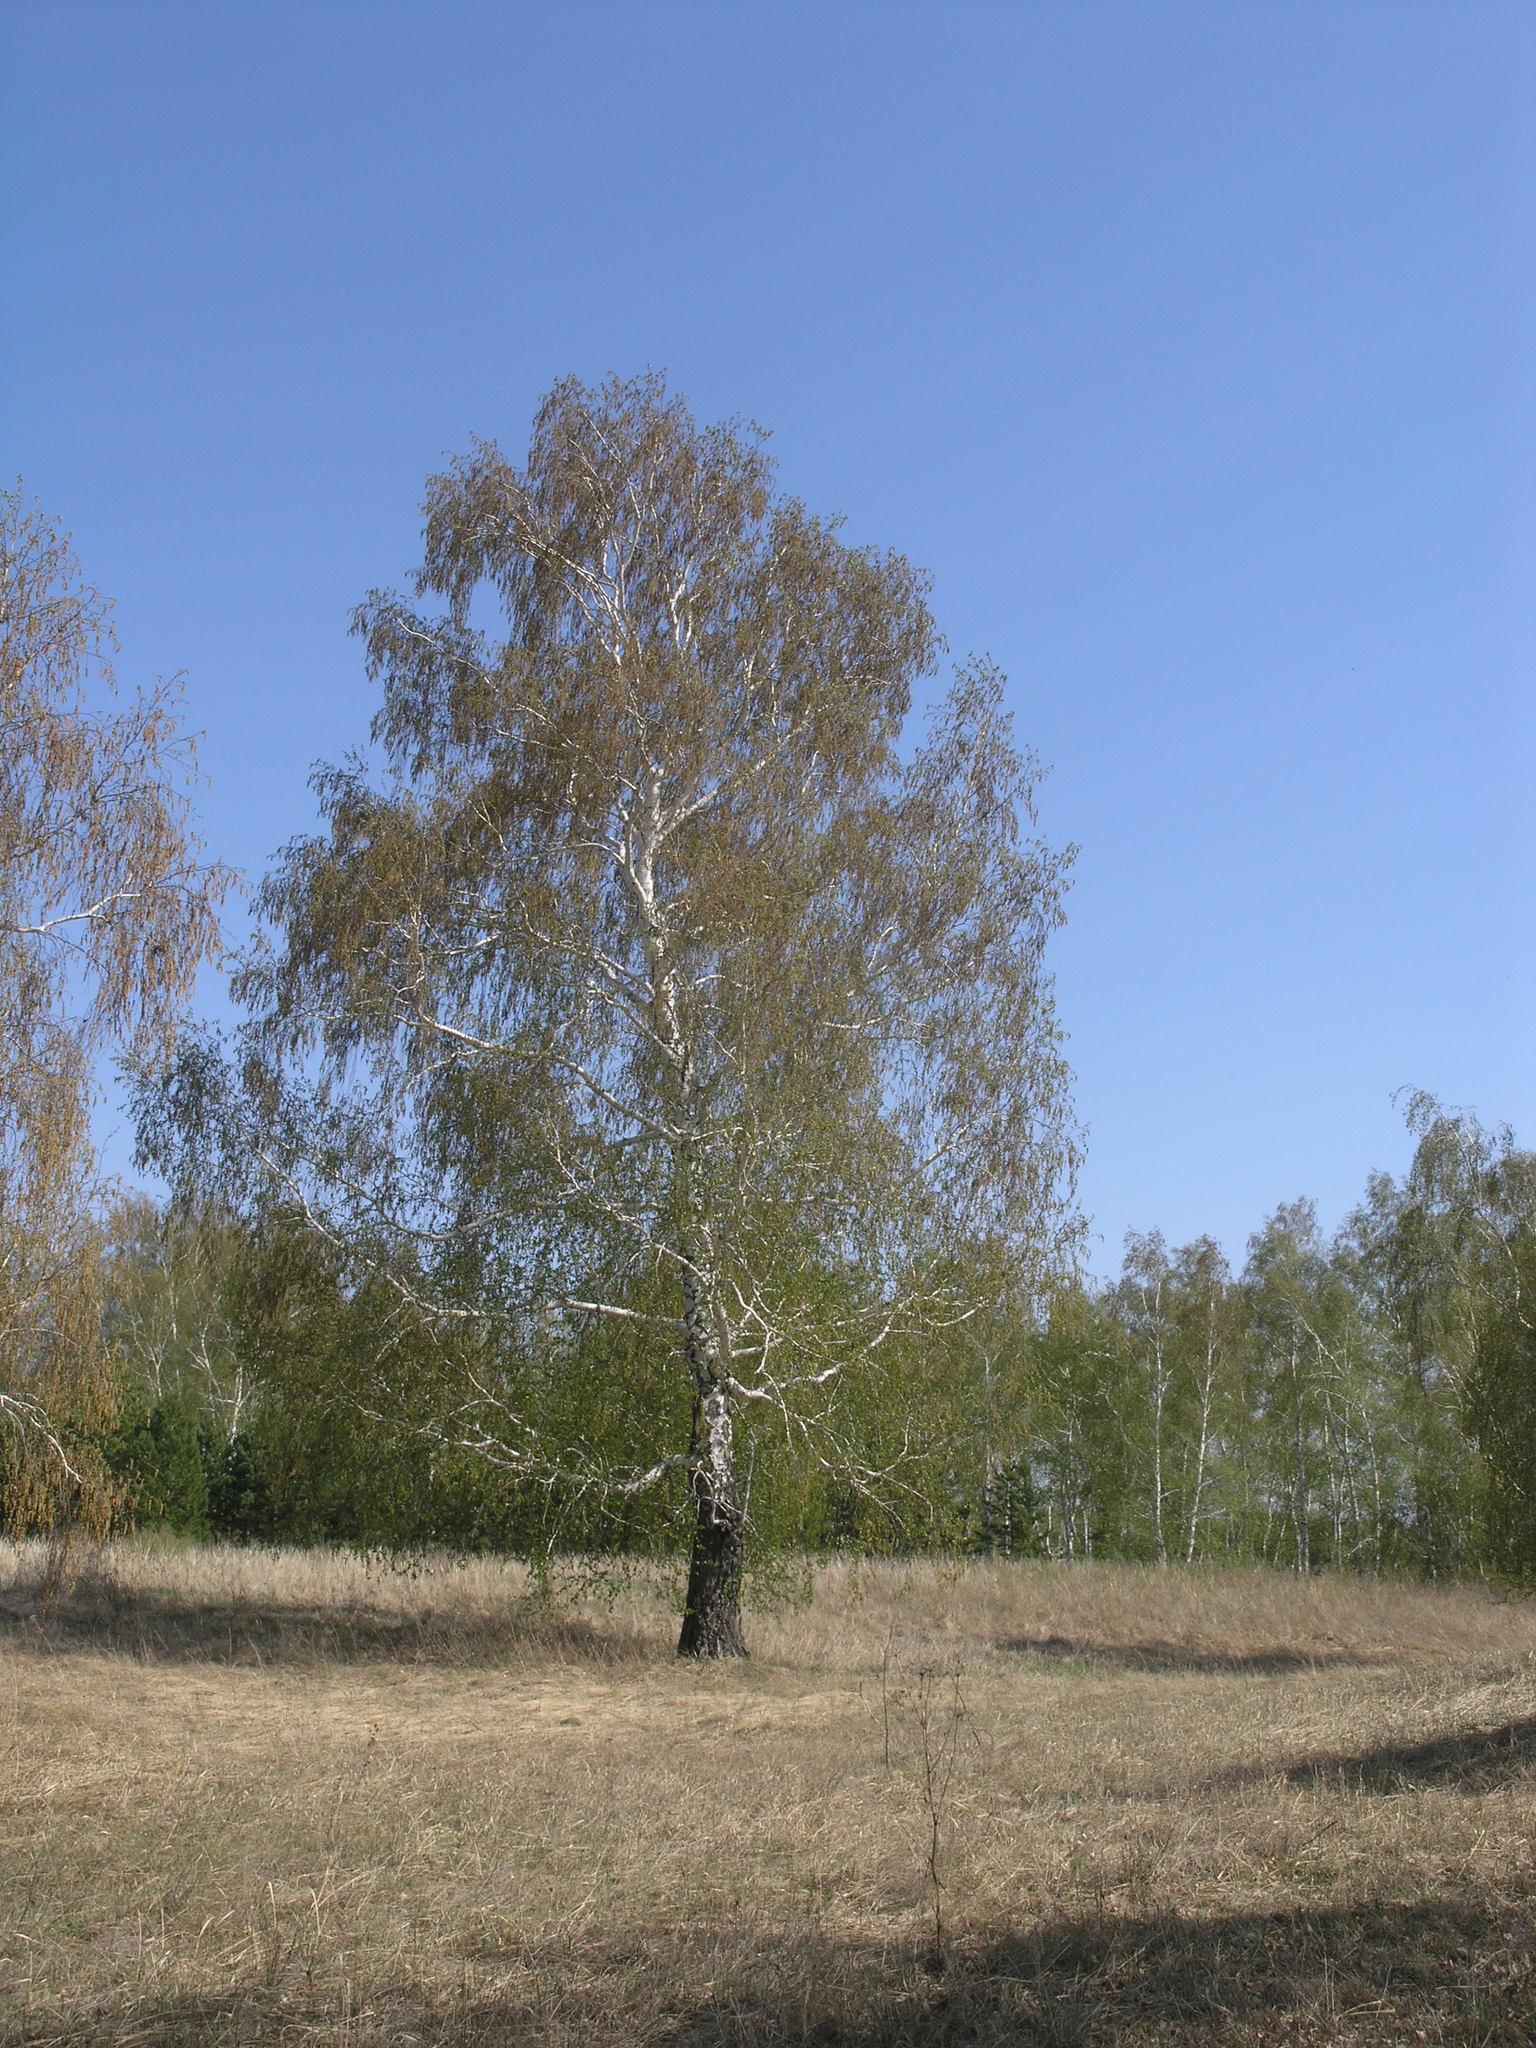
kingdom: Plantae
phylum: Tracheophyta
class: Magnoliopsida
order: Fagales
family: Betulaceae
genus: Betula
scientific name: Betula pendula
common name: Silver birch
